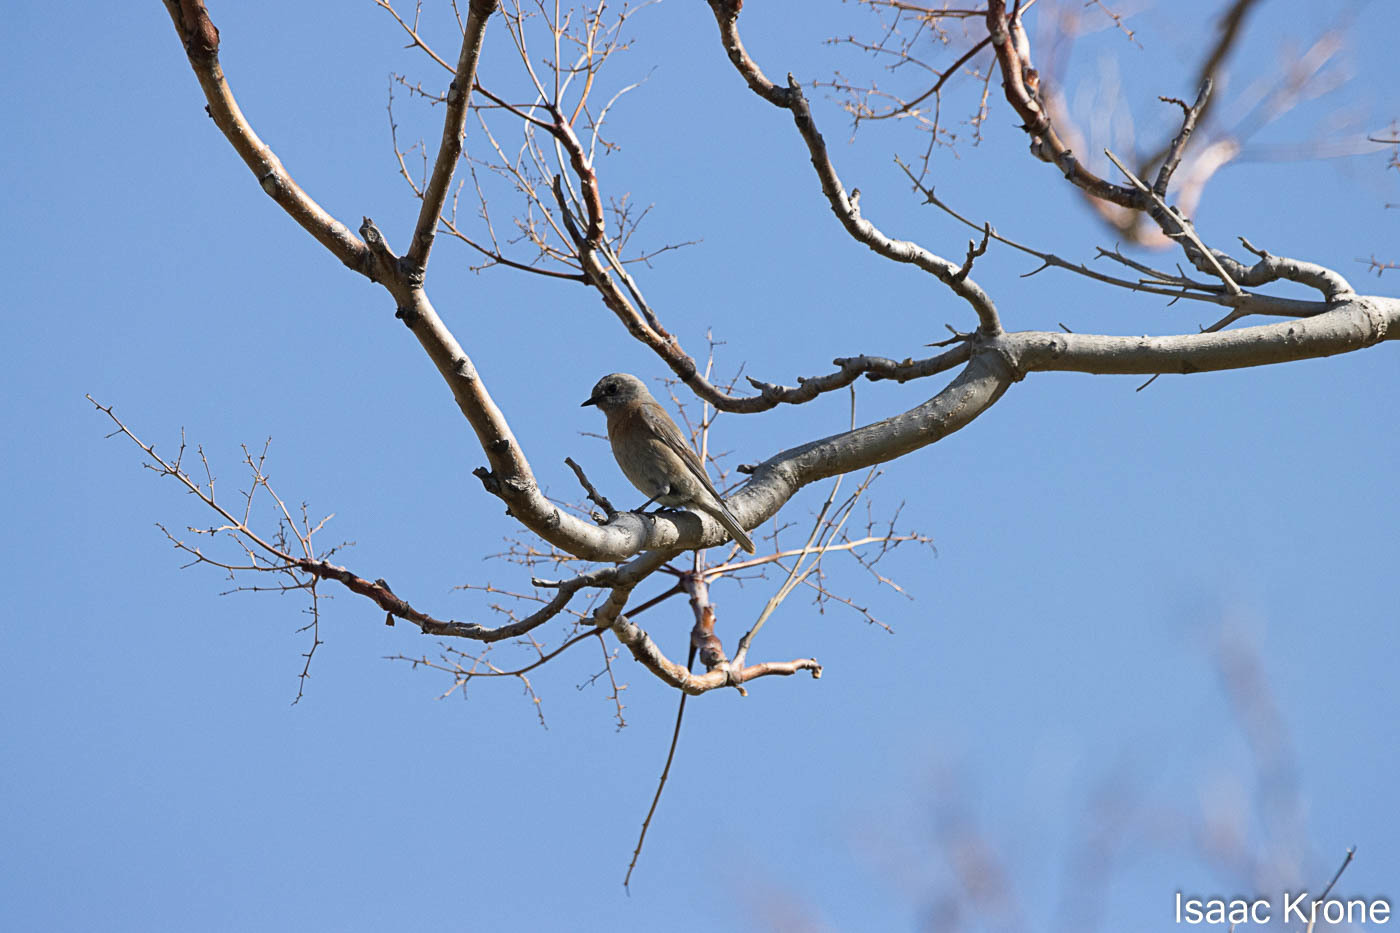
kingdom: Animalia
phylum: Chordata
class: Aves
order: Passeriformes
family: Turdidae
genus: Sialia
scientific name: Sialia mexicana
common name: Western bluebird
